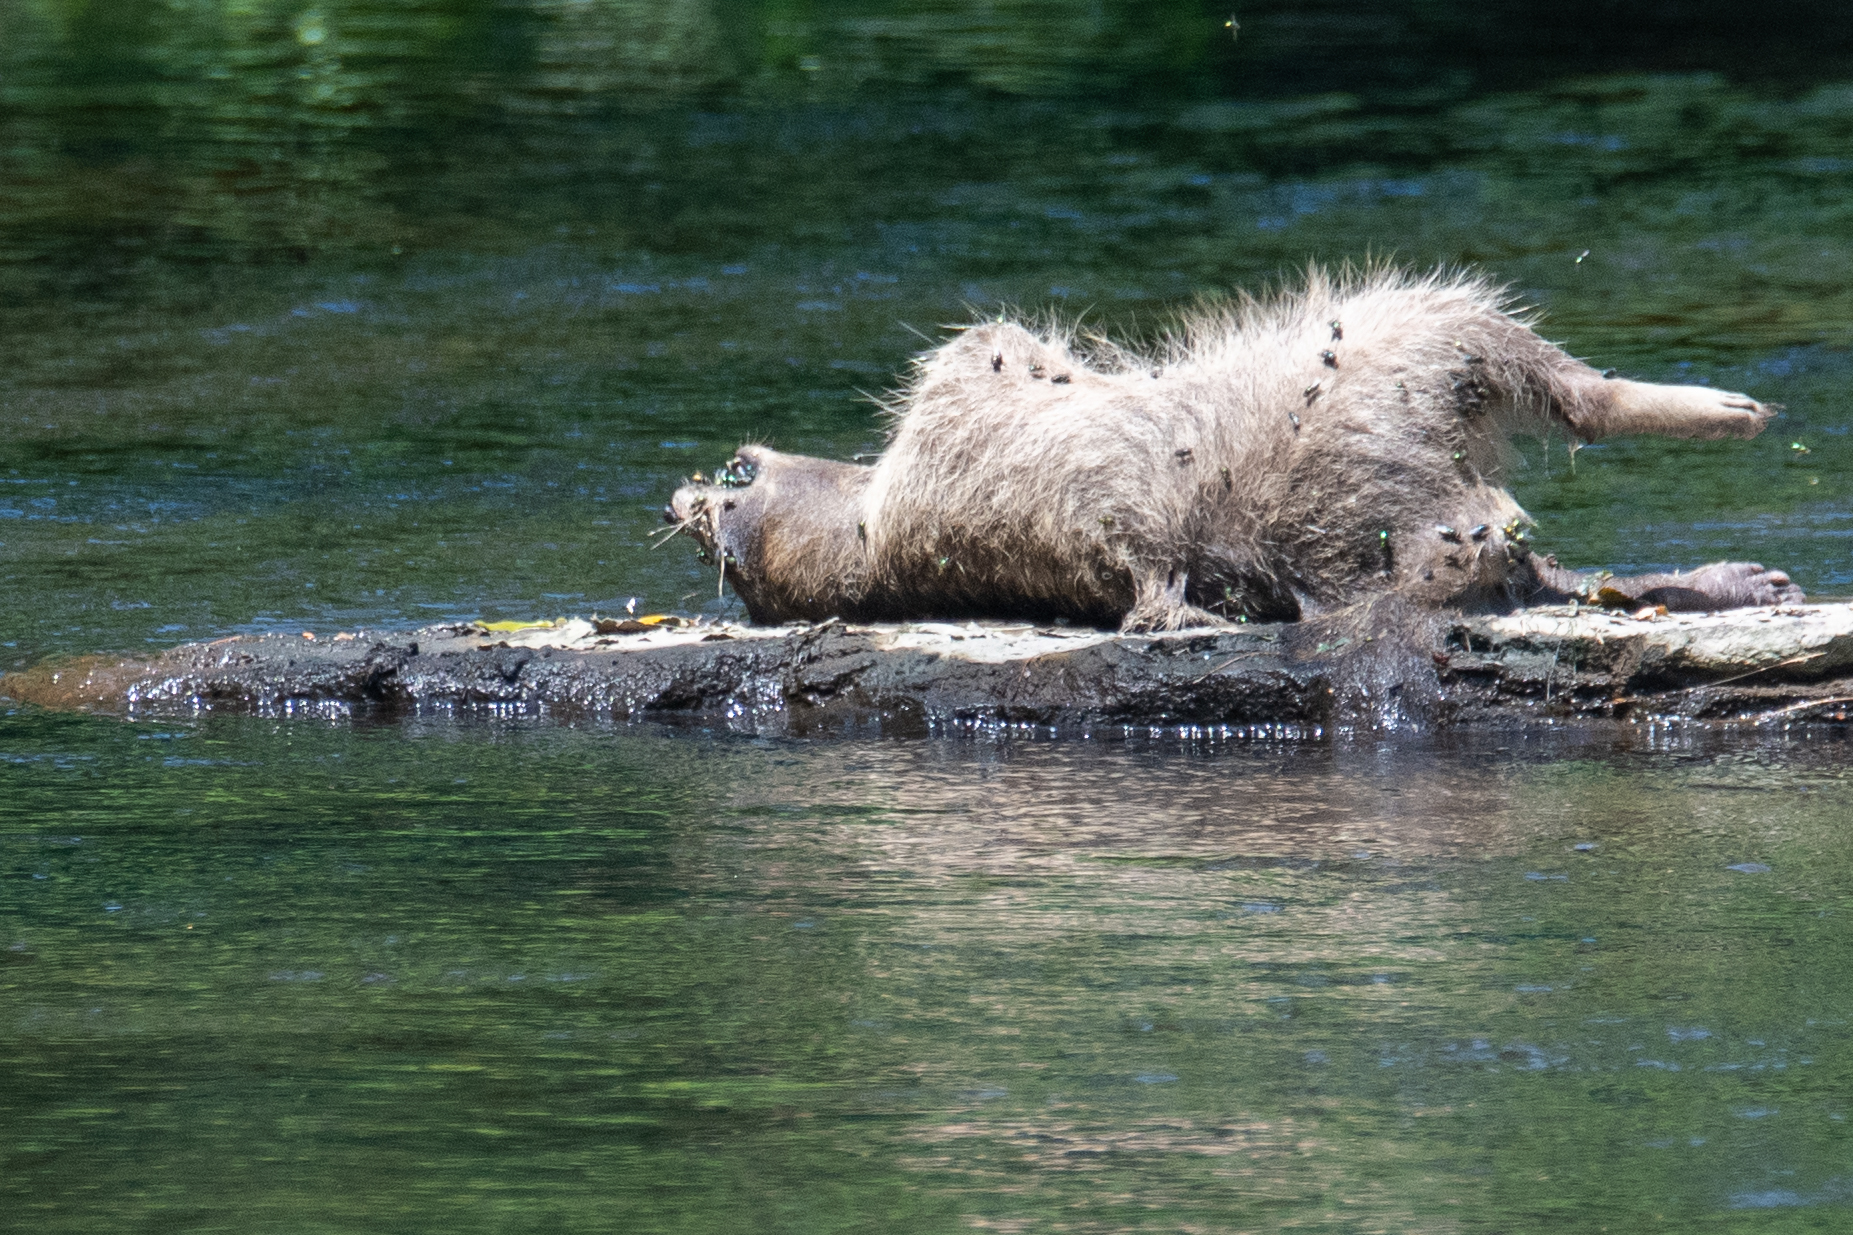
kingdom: Animalia
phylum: Chordata
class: Mammalia
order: Carnivora
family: Procyonidae
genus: Procyon
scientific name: Procyon lotor
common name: Raccoon
